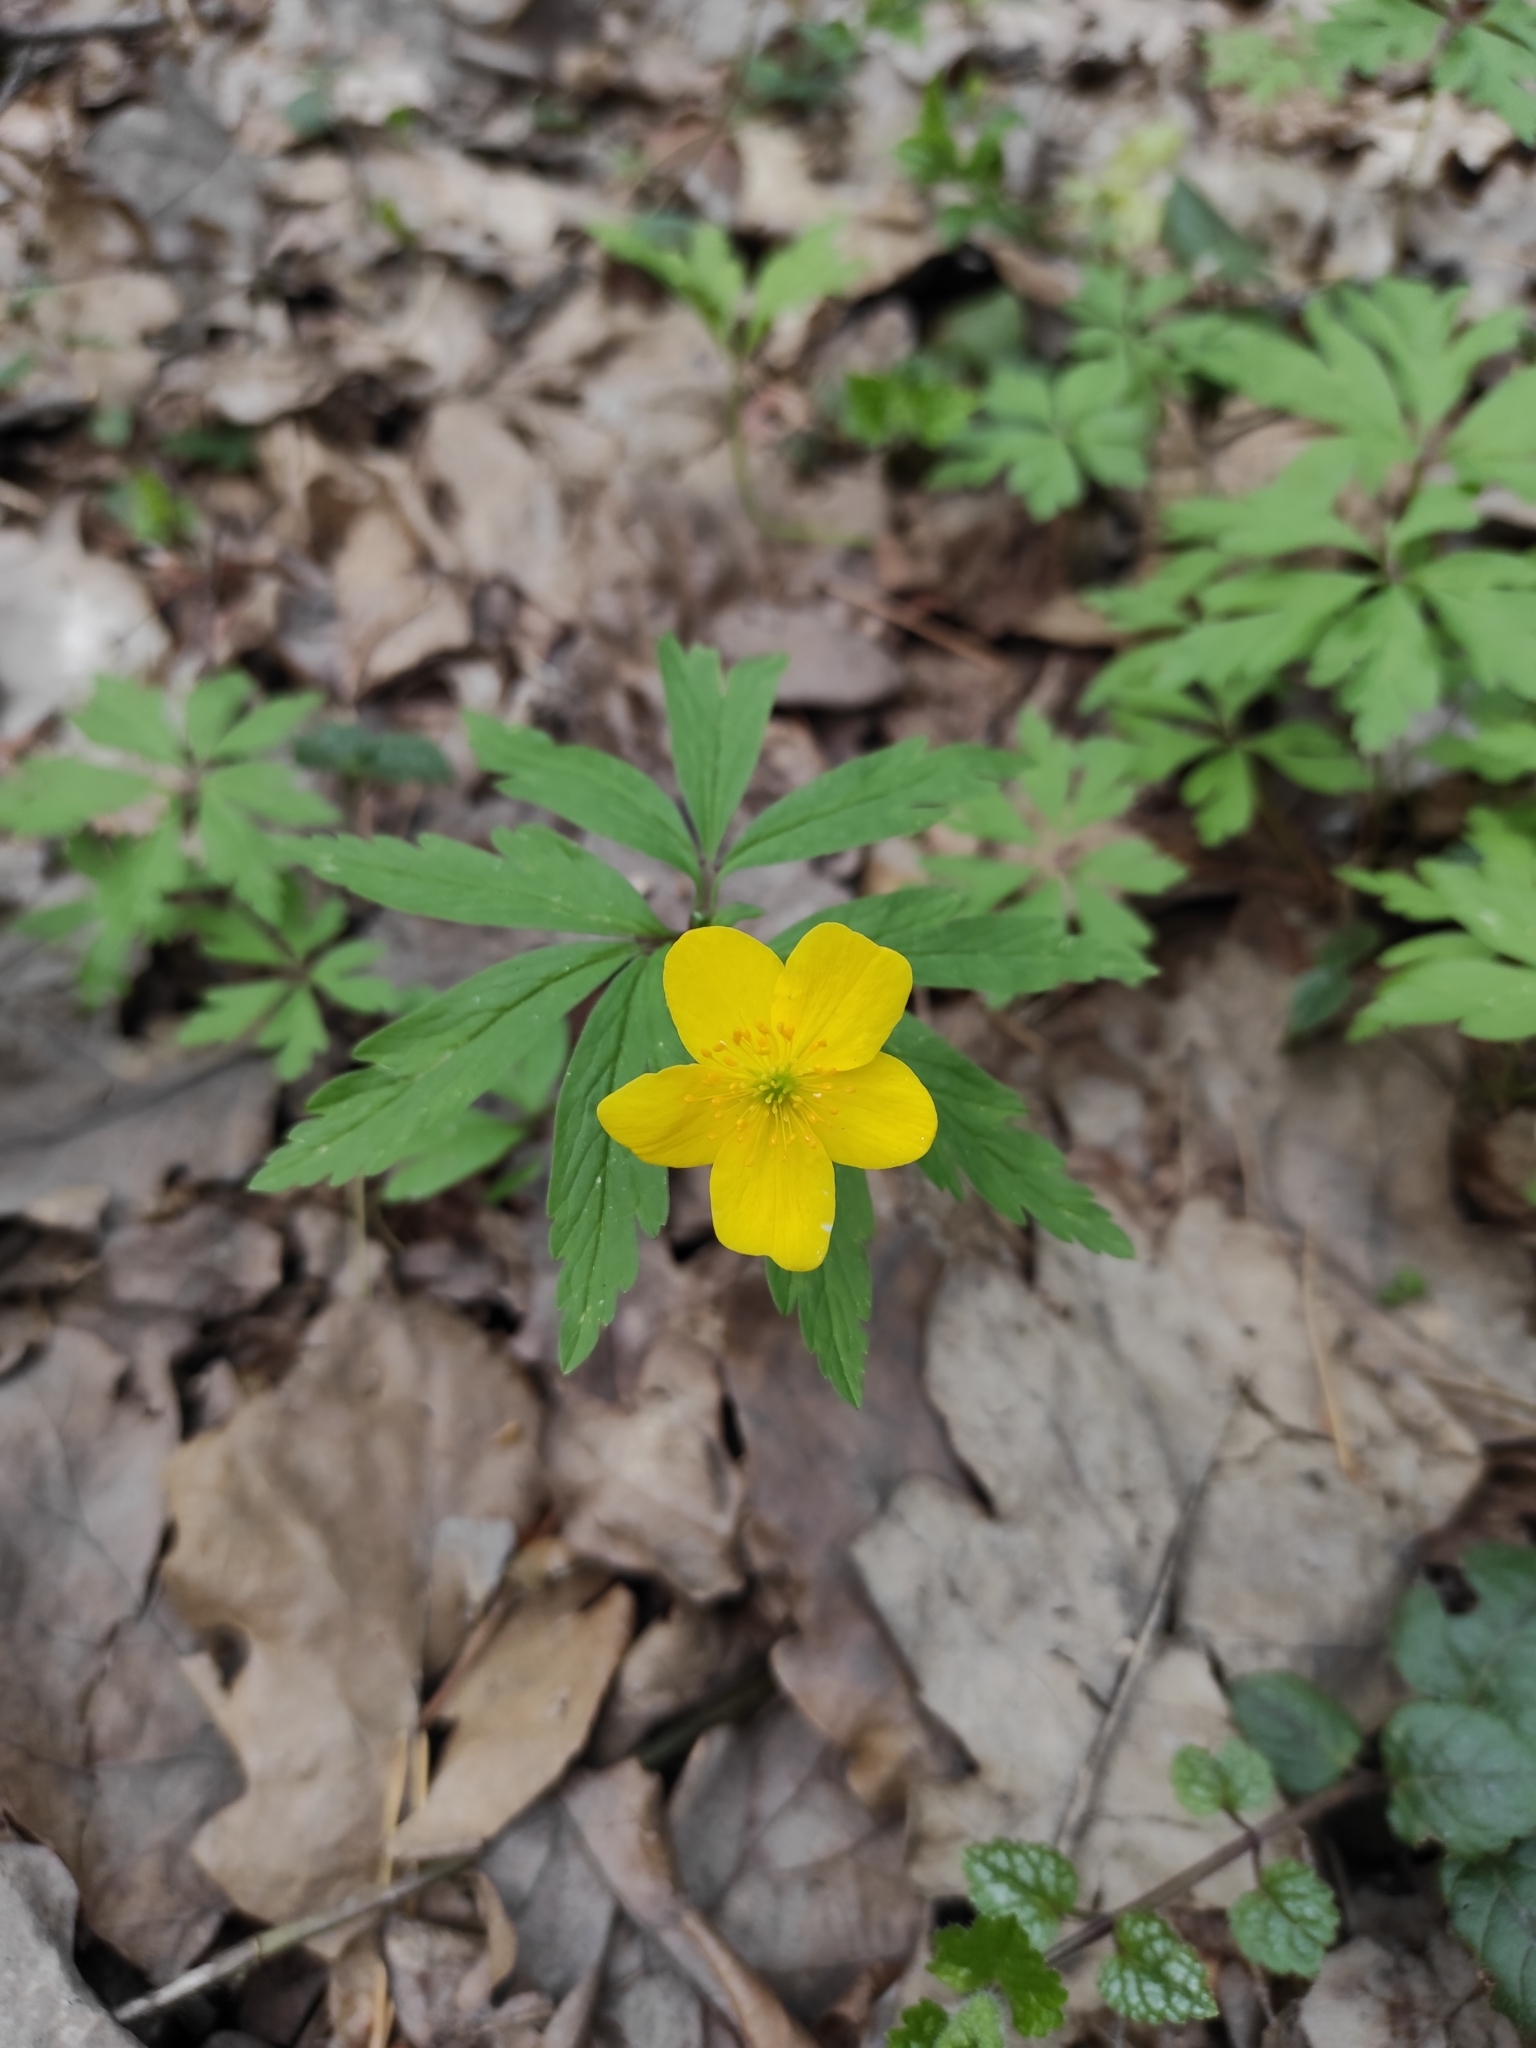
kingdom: Plantae
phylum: Tracheophyta
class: Magnoliopsida
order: Ranunculales
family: Ranunculaceae
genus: Anemone
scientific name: Anemone ranunculoides
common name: Yellow anemone
